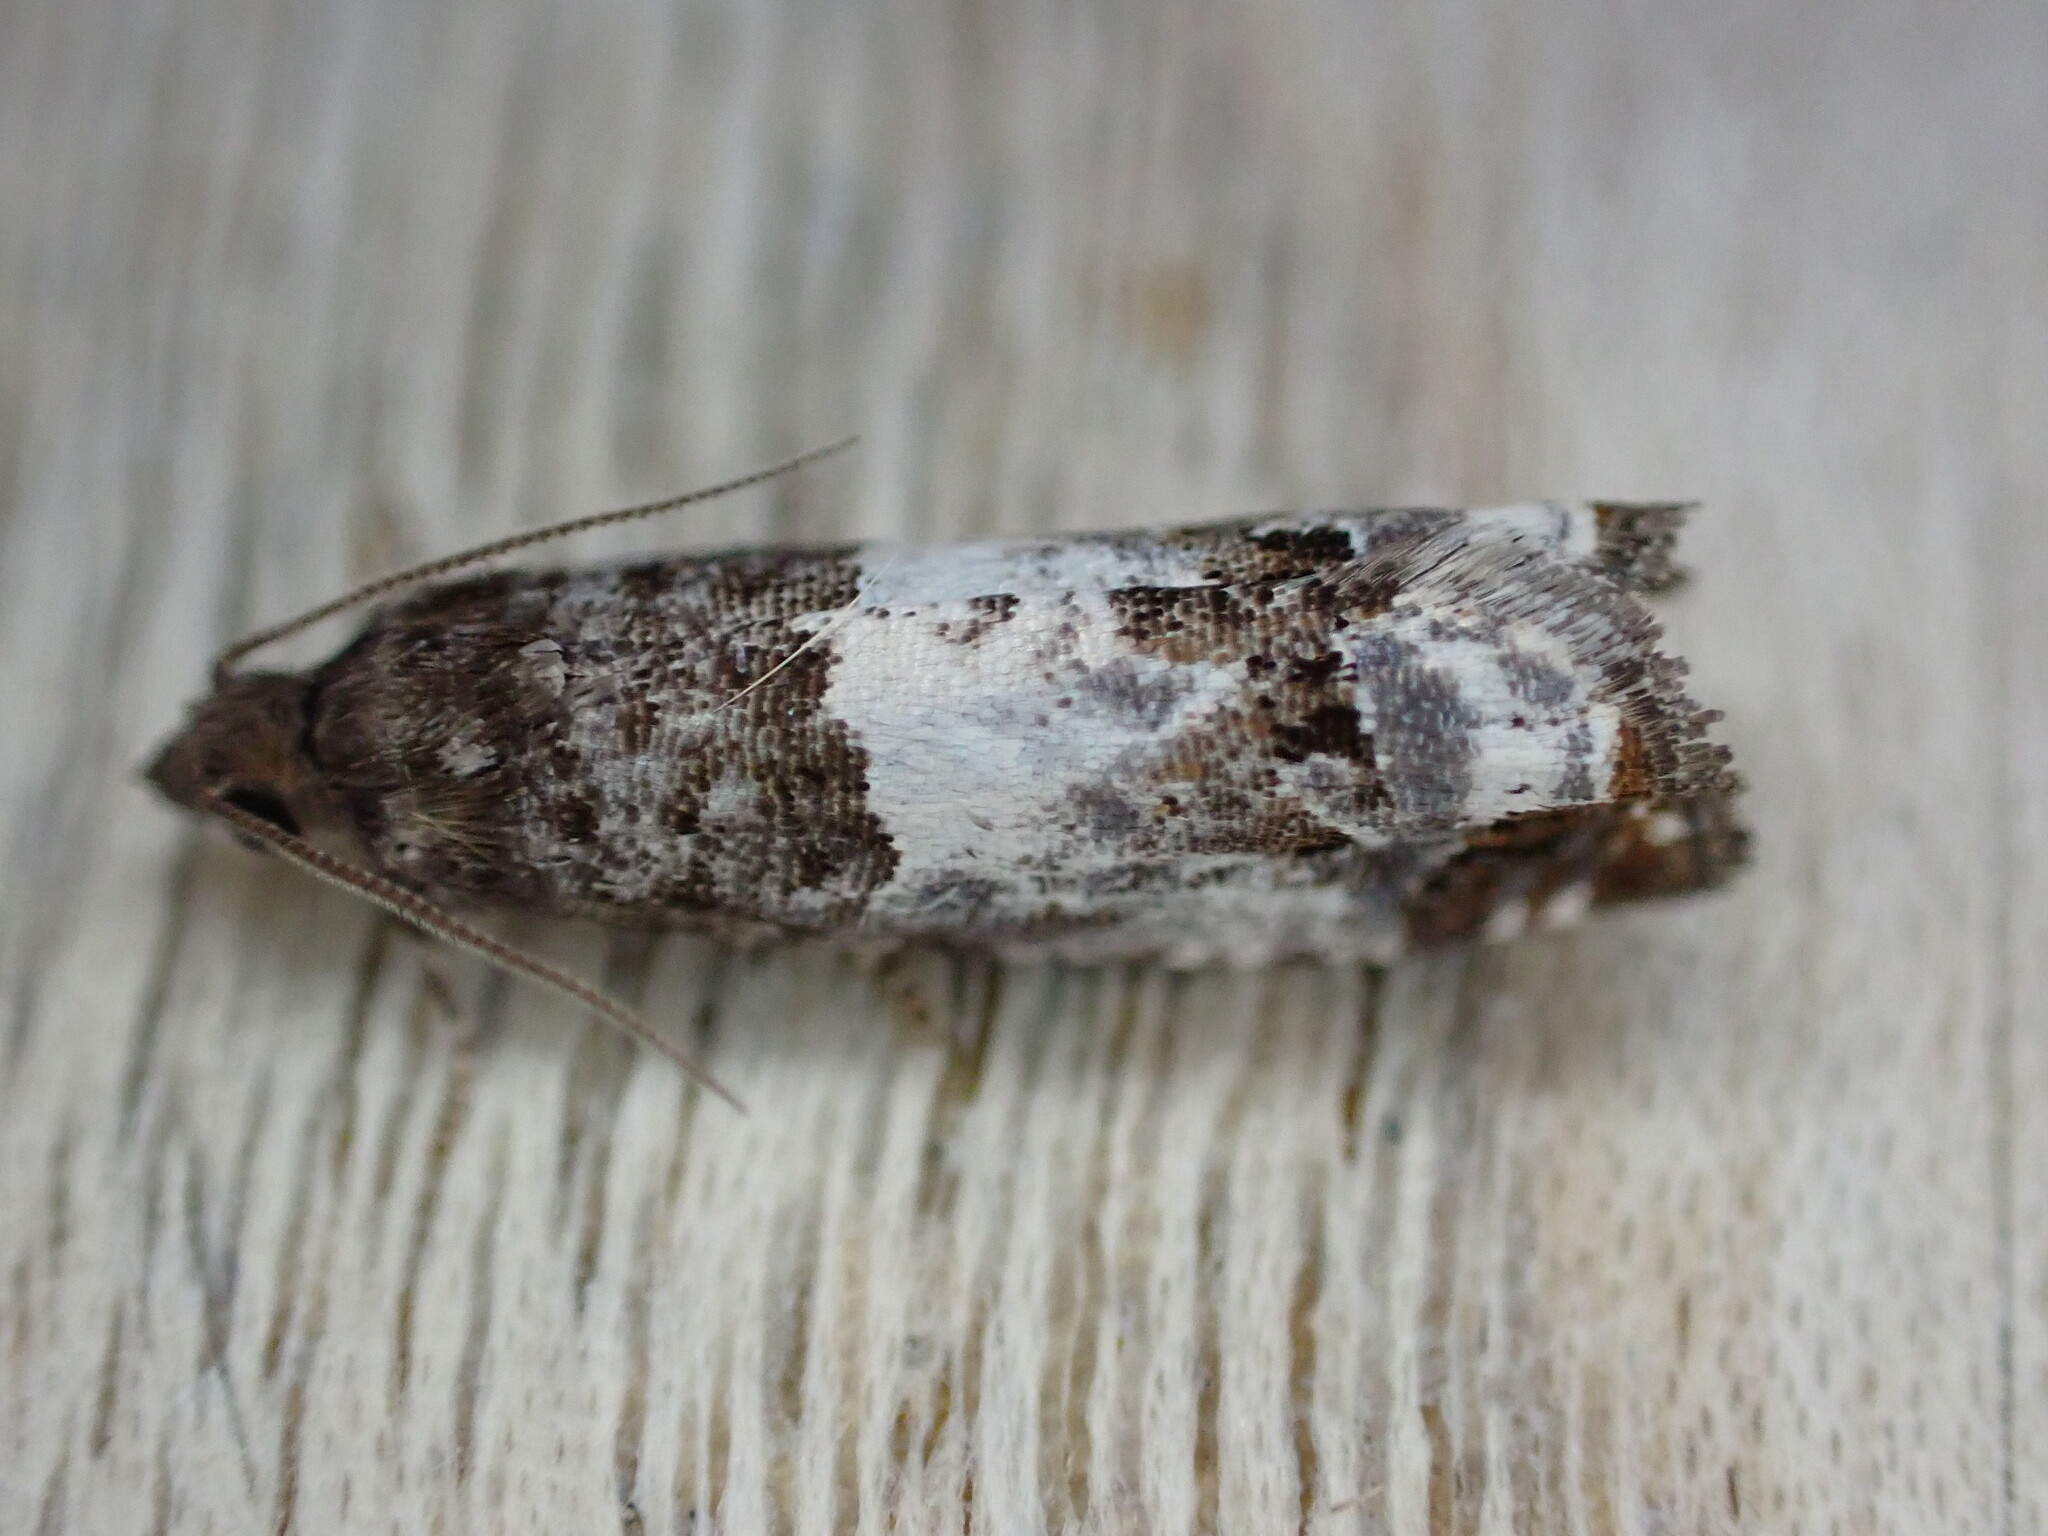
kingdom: Animalia
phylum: Arthropoda
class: Insecta
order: Lepidoptera
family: Tortricidae
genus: Notocelia
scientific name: Notocelia rosaecolana
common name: Common rose bell
